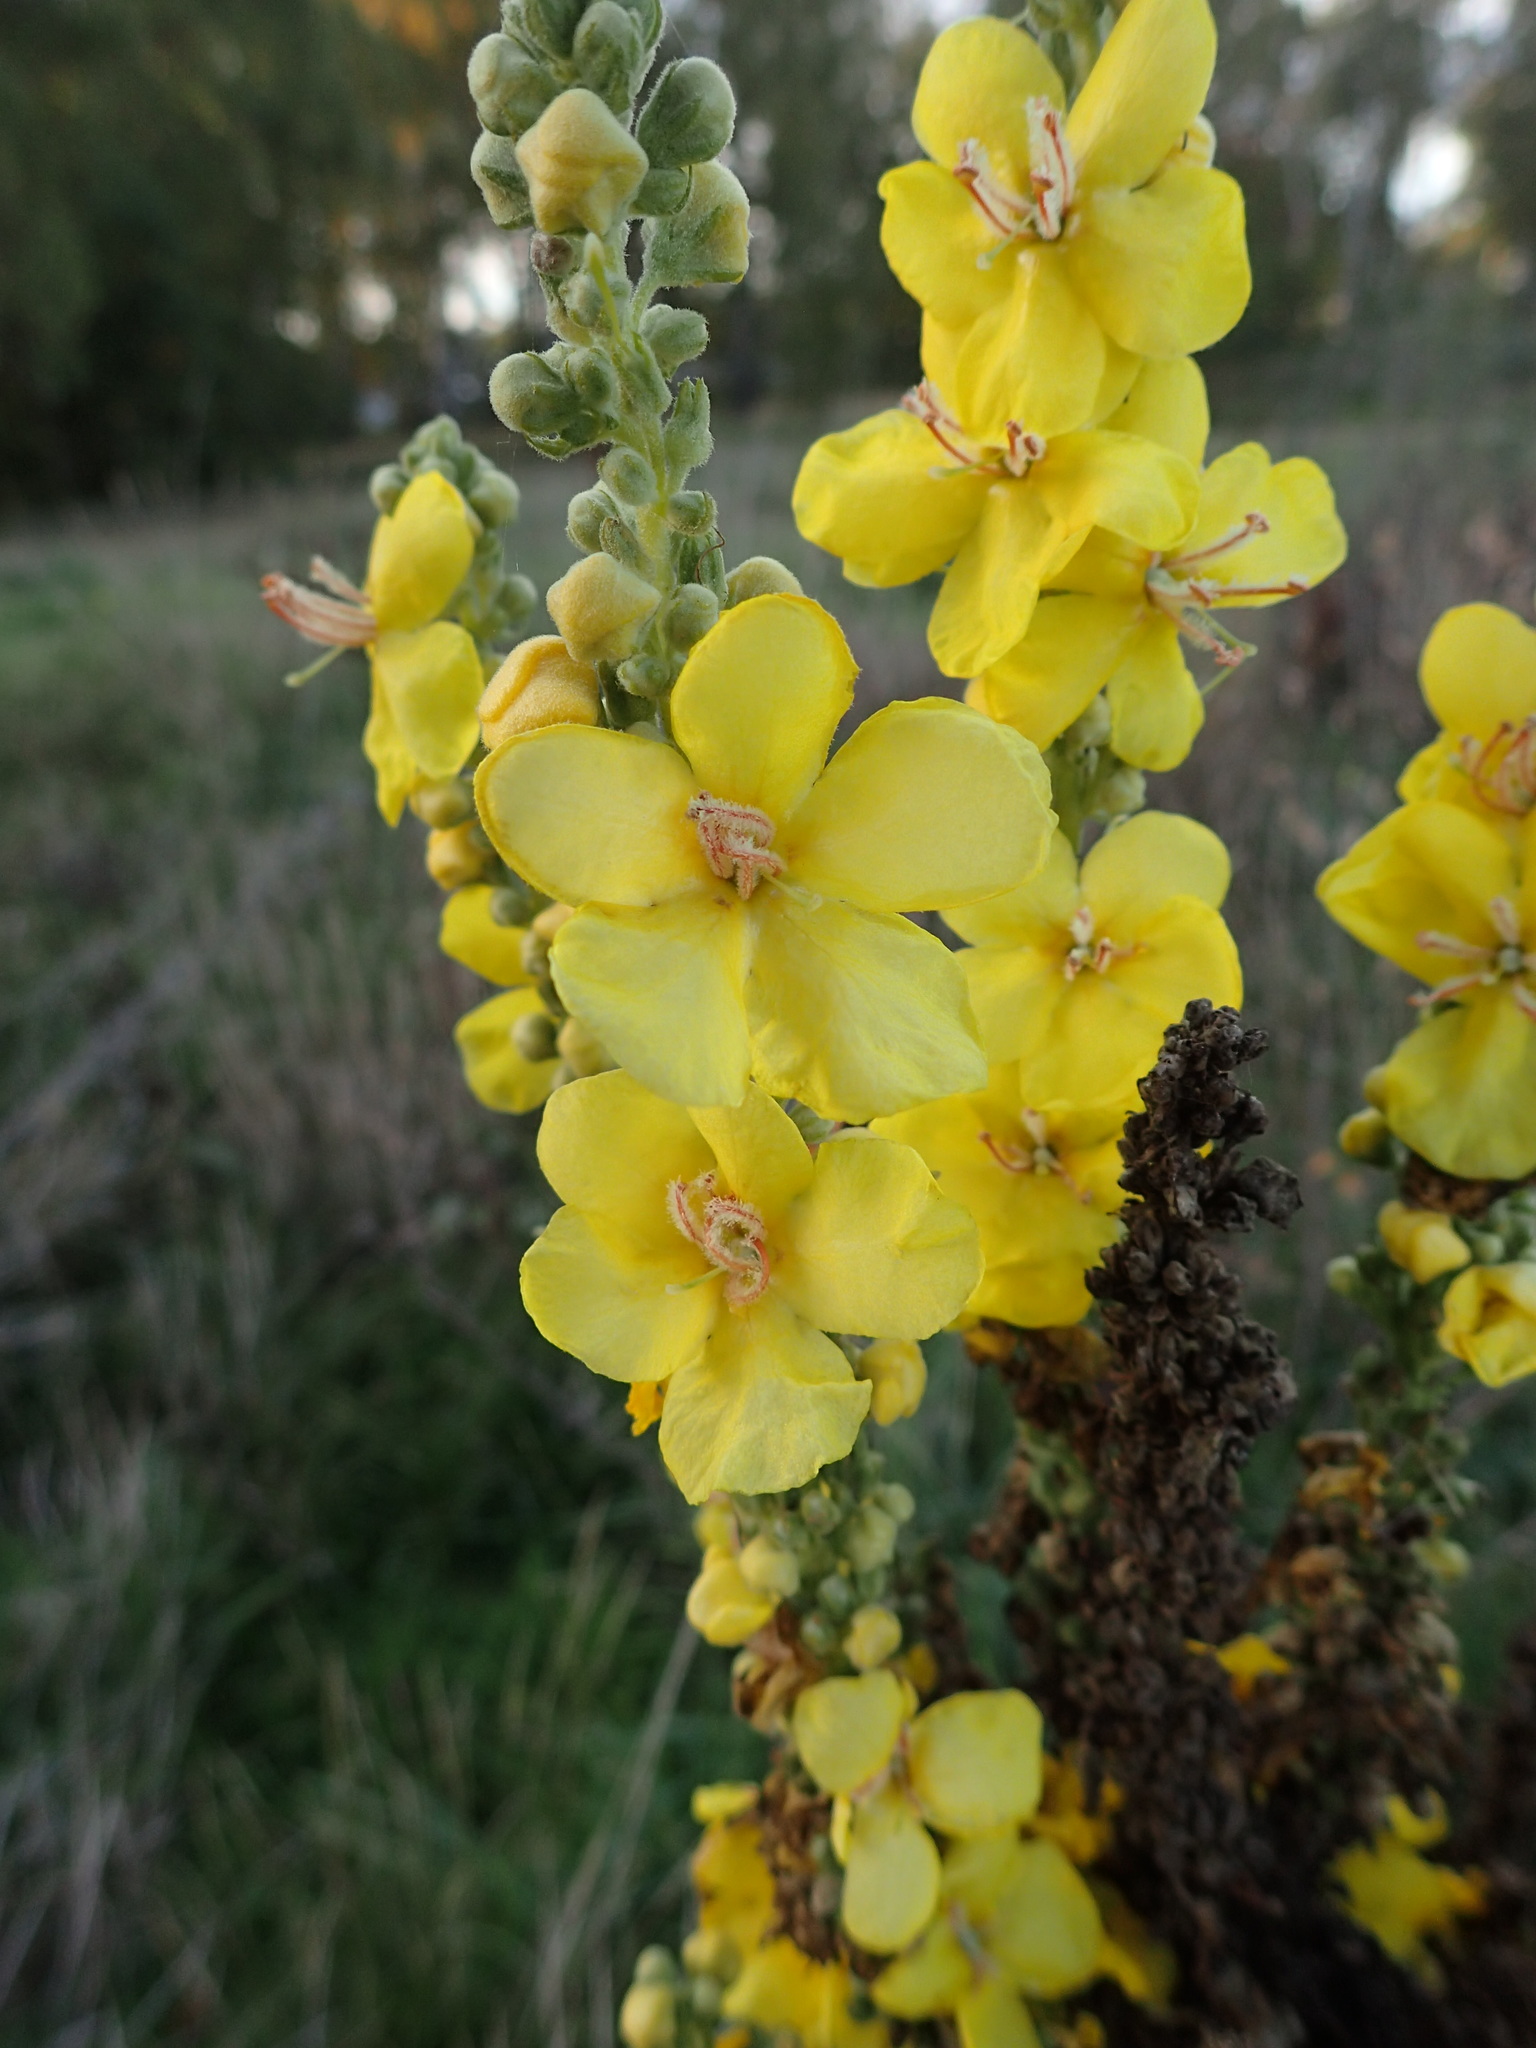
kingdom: Plantae
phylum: Tracheophyta
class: Magnoliopsida
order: Lamiales
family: Scrophulariaceae
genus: Verbascum
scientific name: Verbascum speciosum
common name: Hungarian mullein
